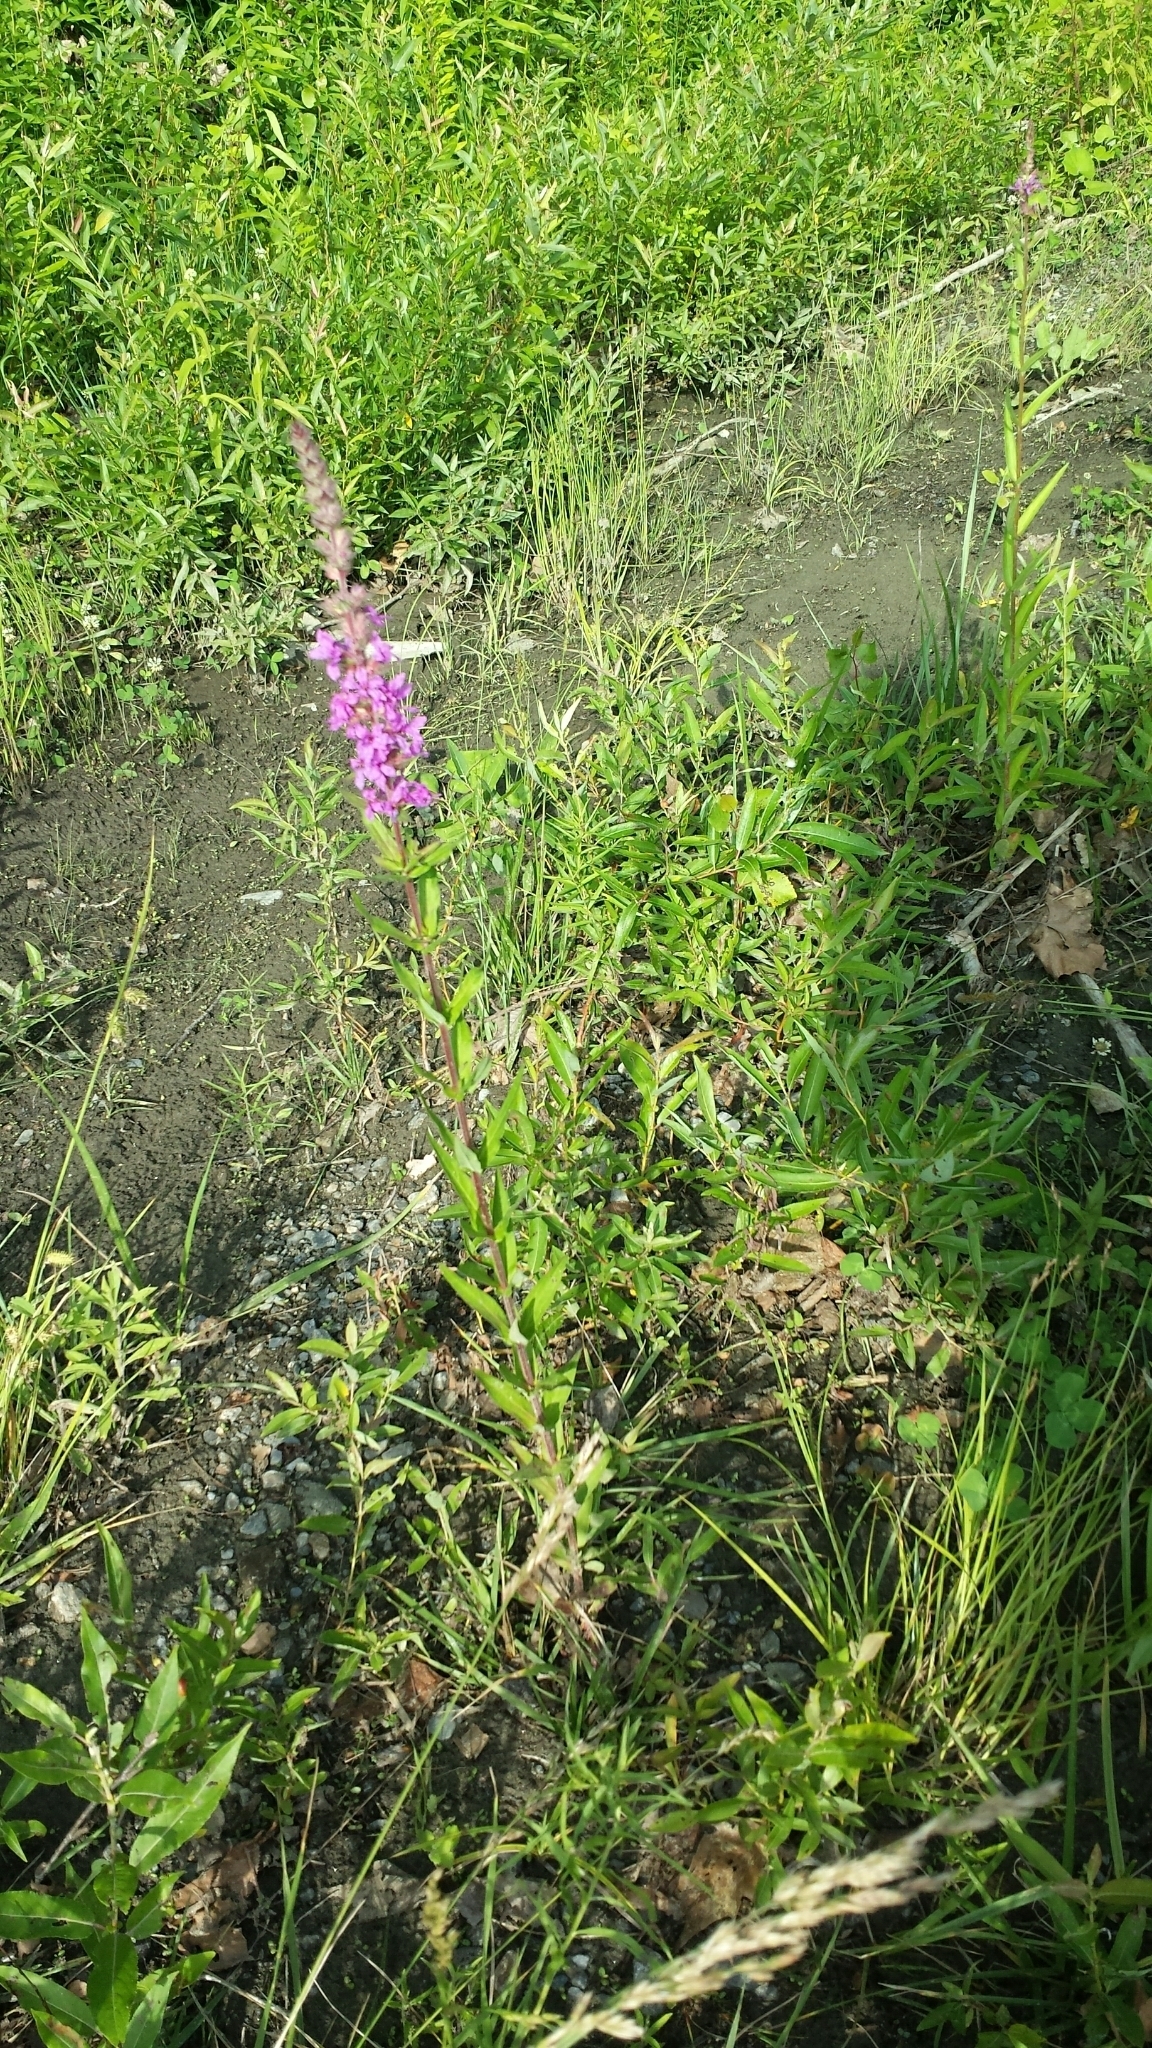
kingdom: Plantae
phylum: Tracheophyta
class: Magnoliopsida
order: Myrtales
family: Lythraceae
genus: Lythrum
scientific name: Lythrum salicaria
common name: Purple loosestrife
